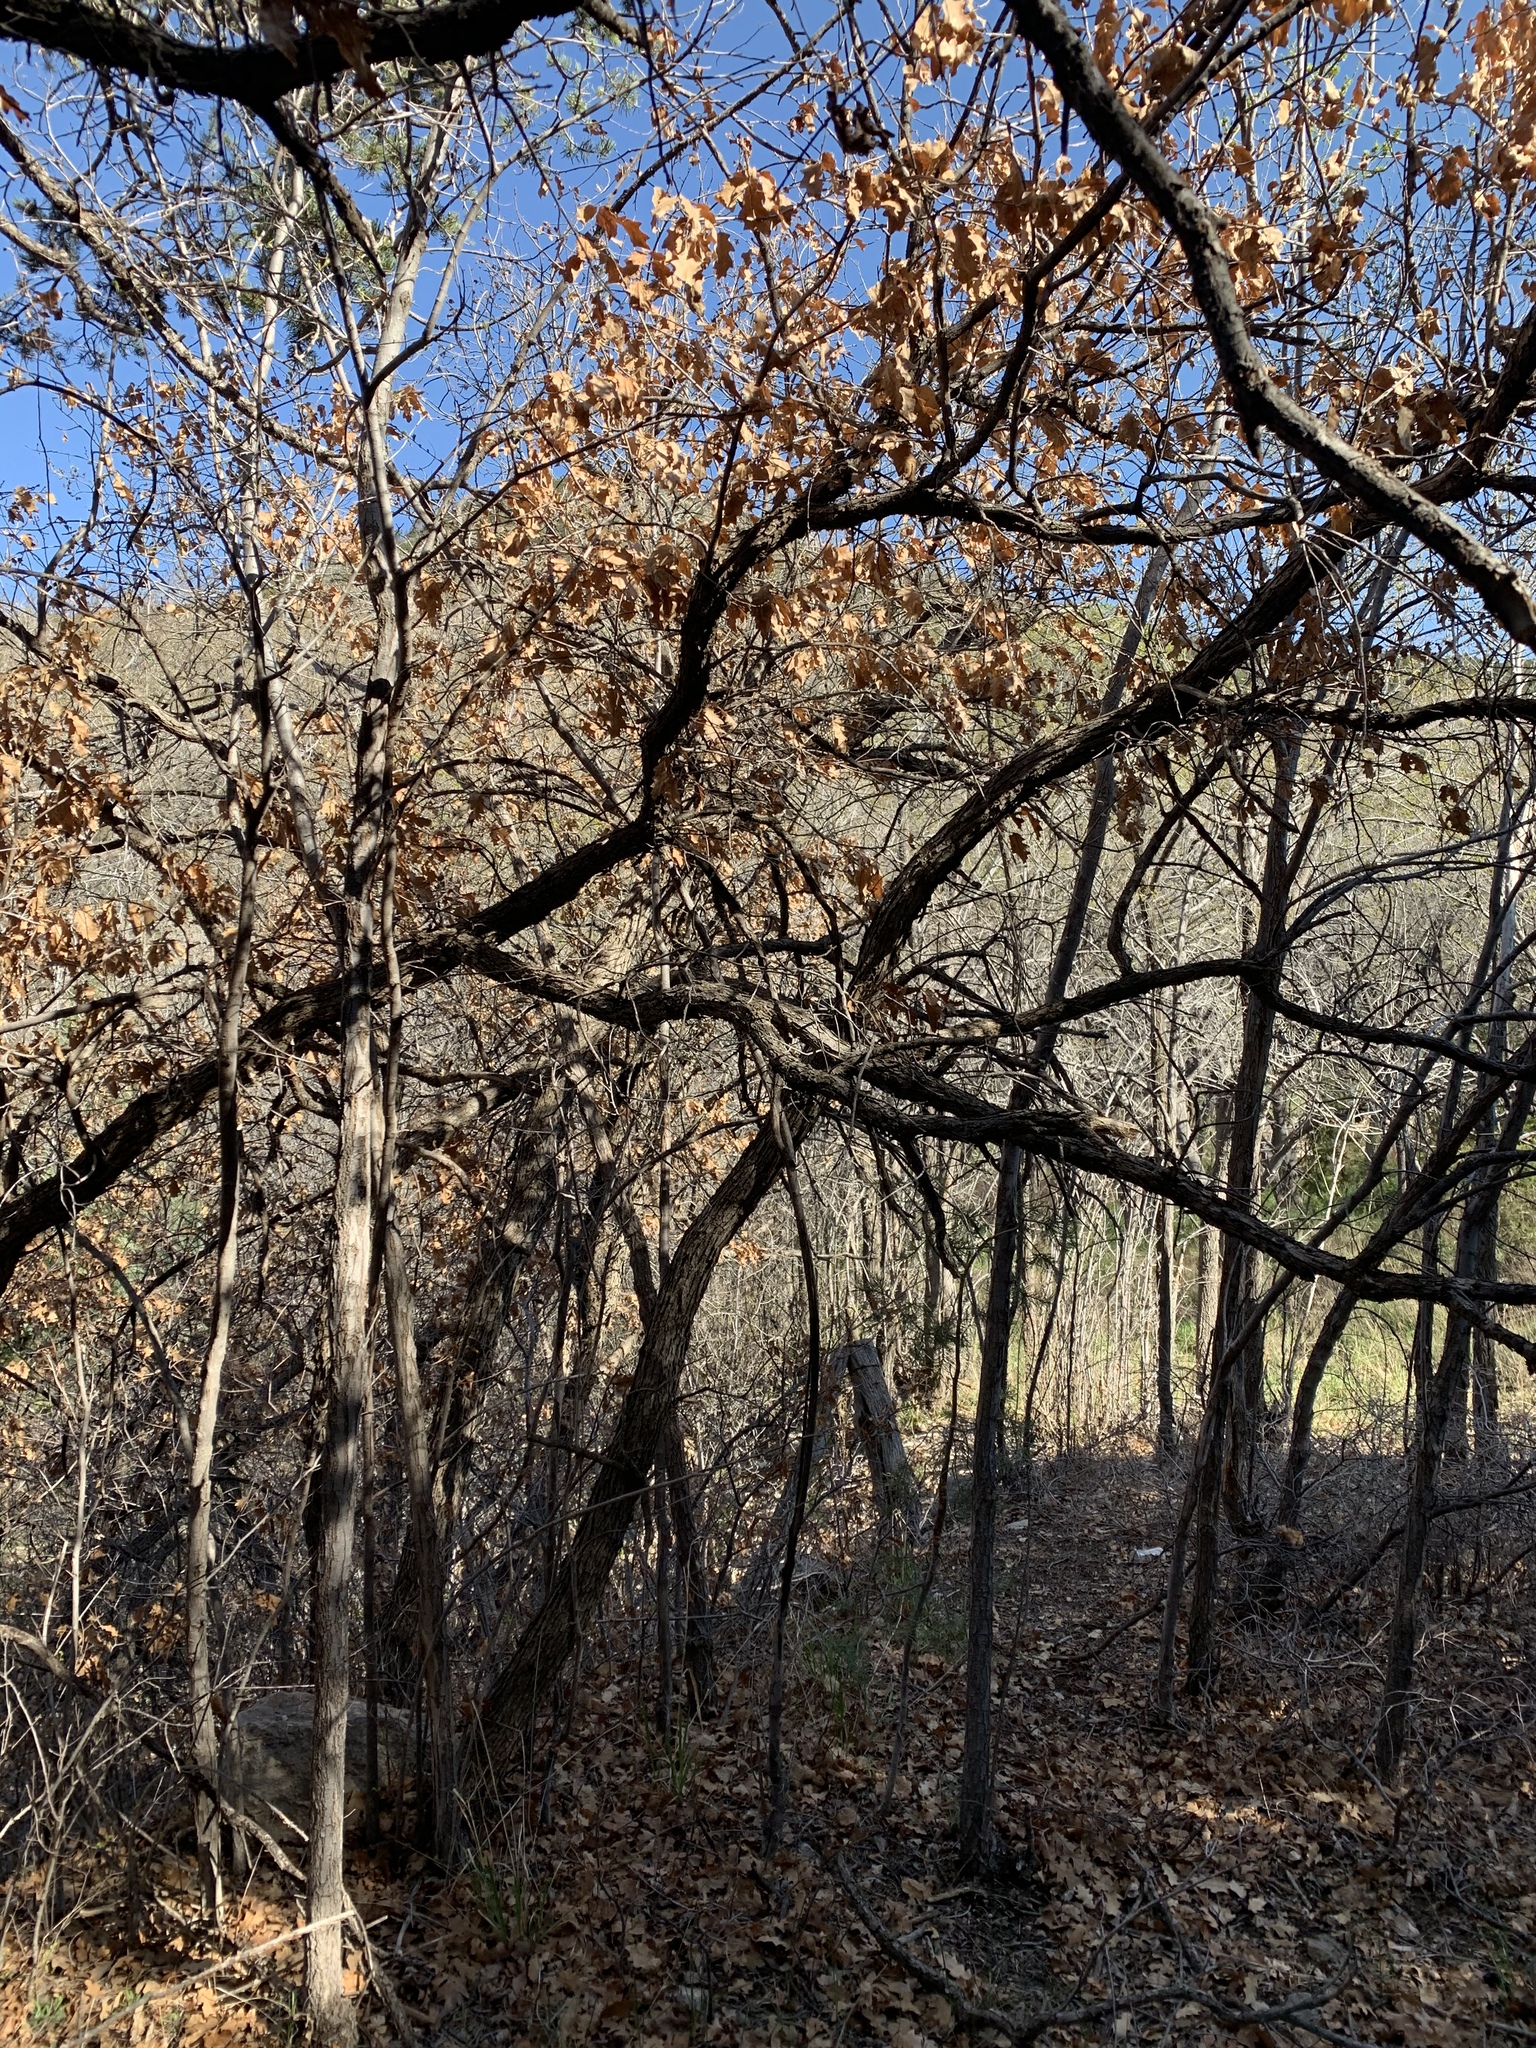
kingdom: Plantae
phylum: Tracheophyta
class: Magnoliopsida
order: Fagales
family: Fagaceae
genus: Quercus
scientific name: Quercus gambelii
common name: Gambel oak
